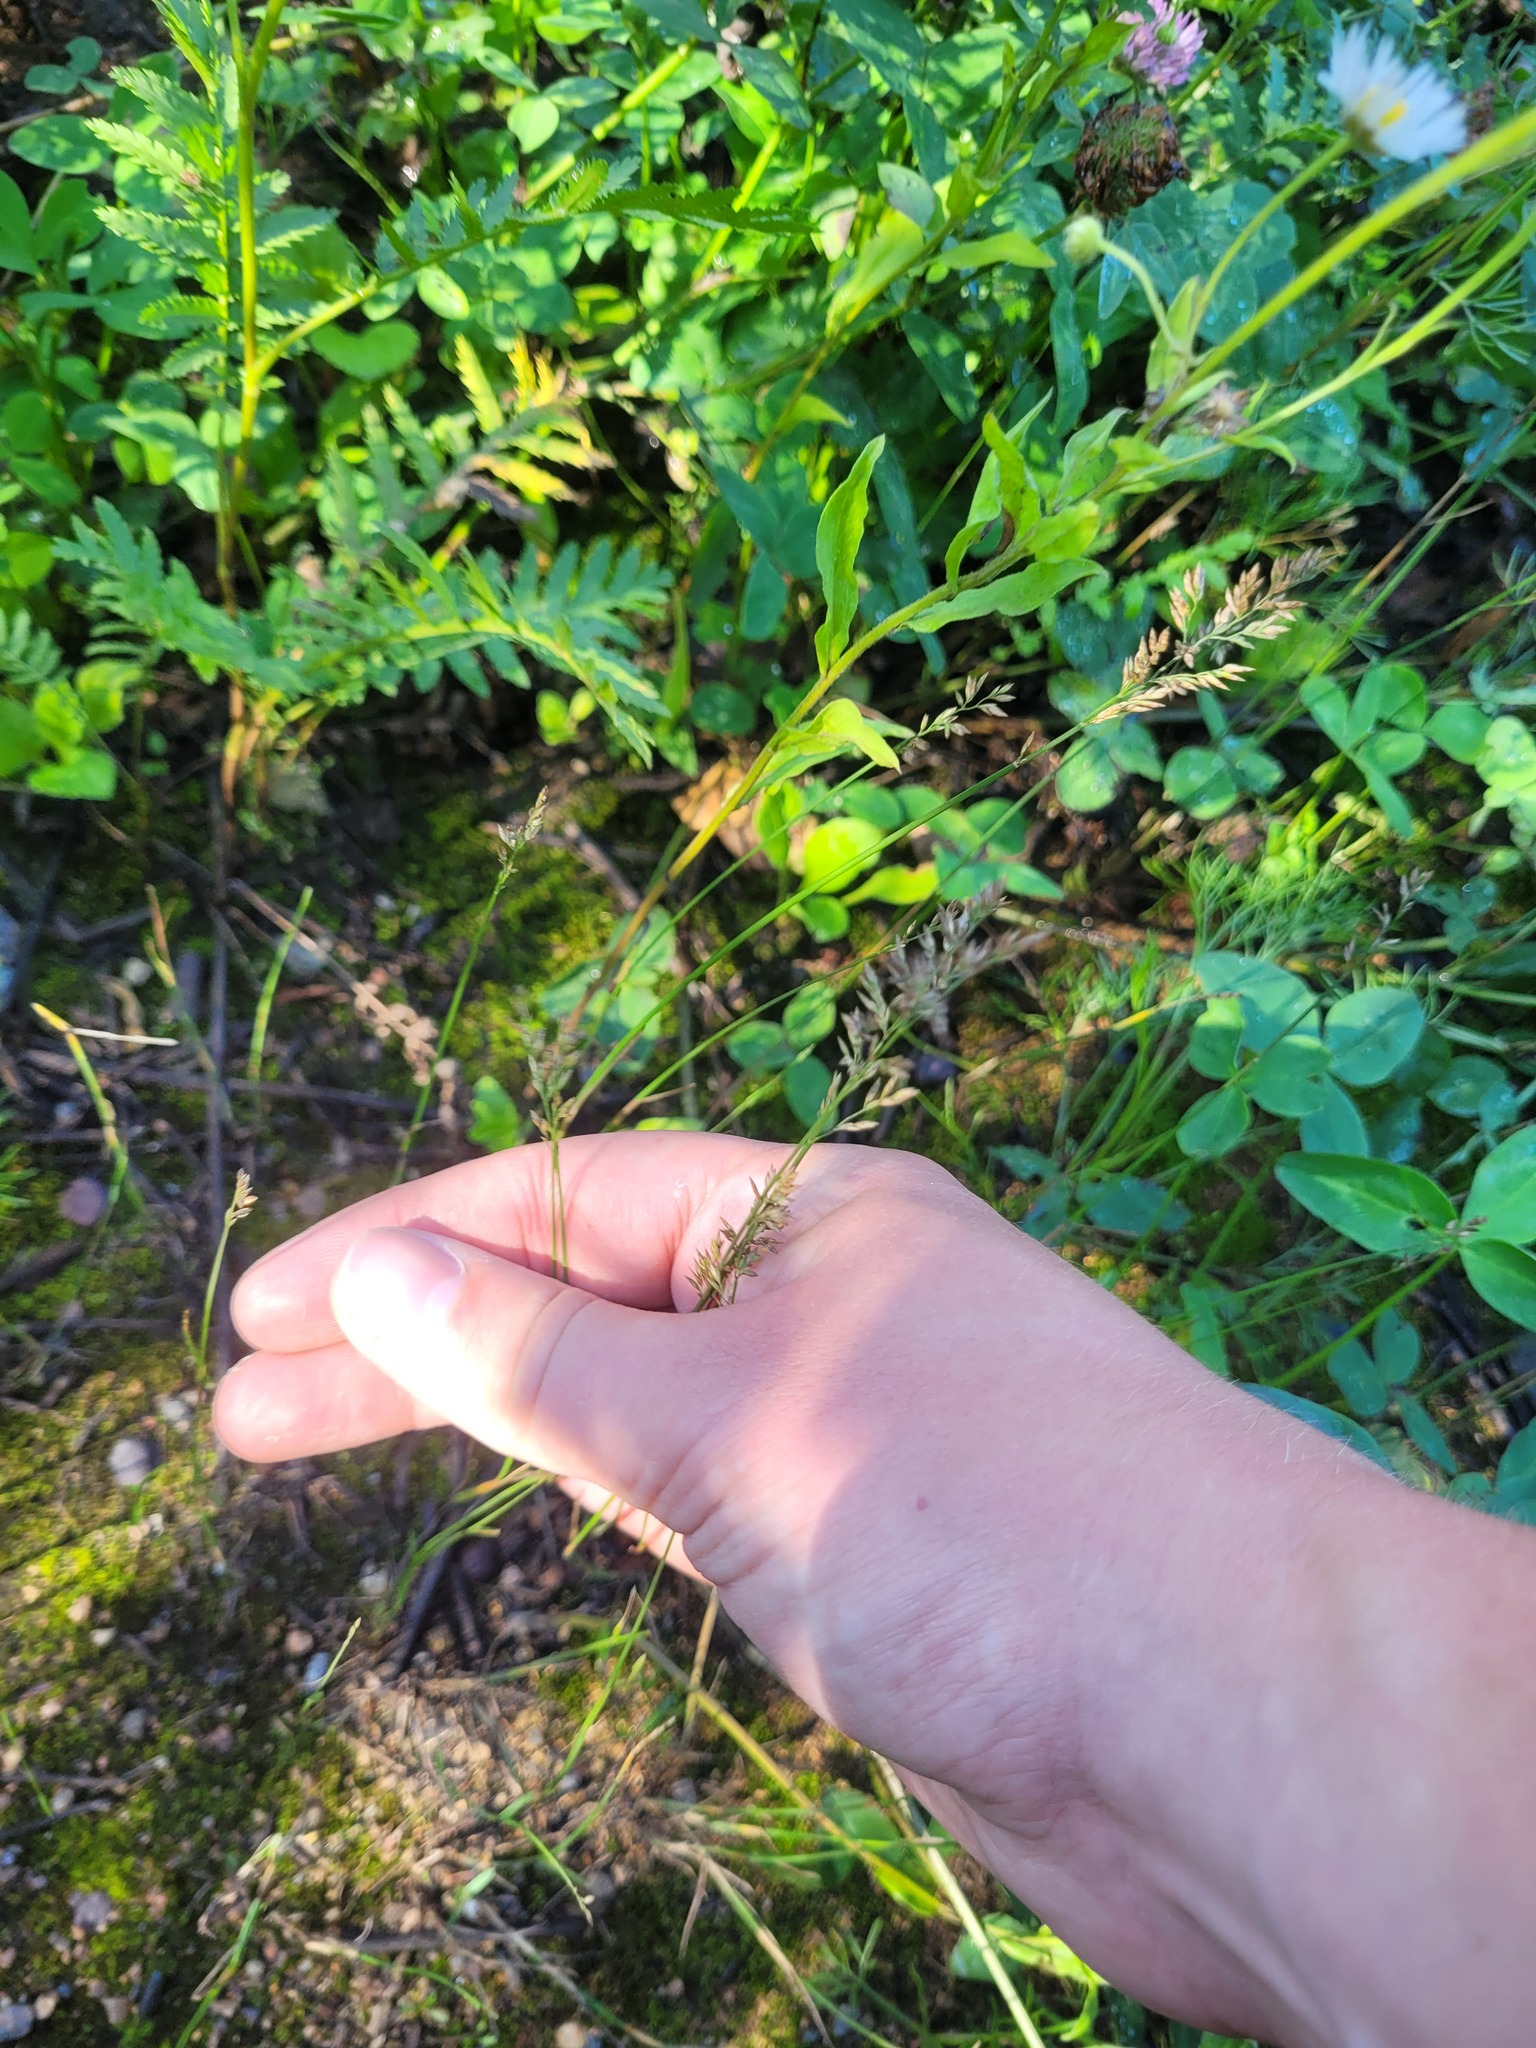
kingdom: Plantae
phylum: Tracheophyta
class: Liliopsida
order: Poales
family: Poaceae
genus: Poa
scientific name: Poa compressa
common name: Canada bluegrass
